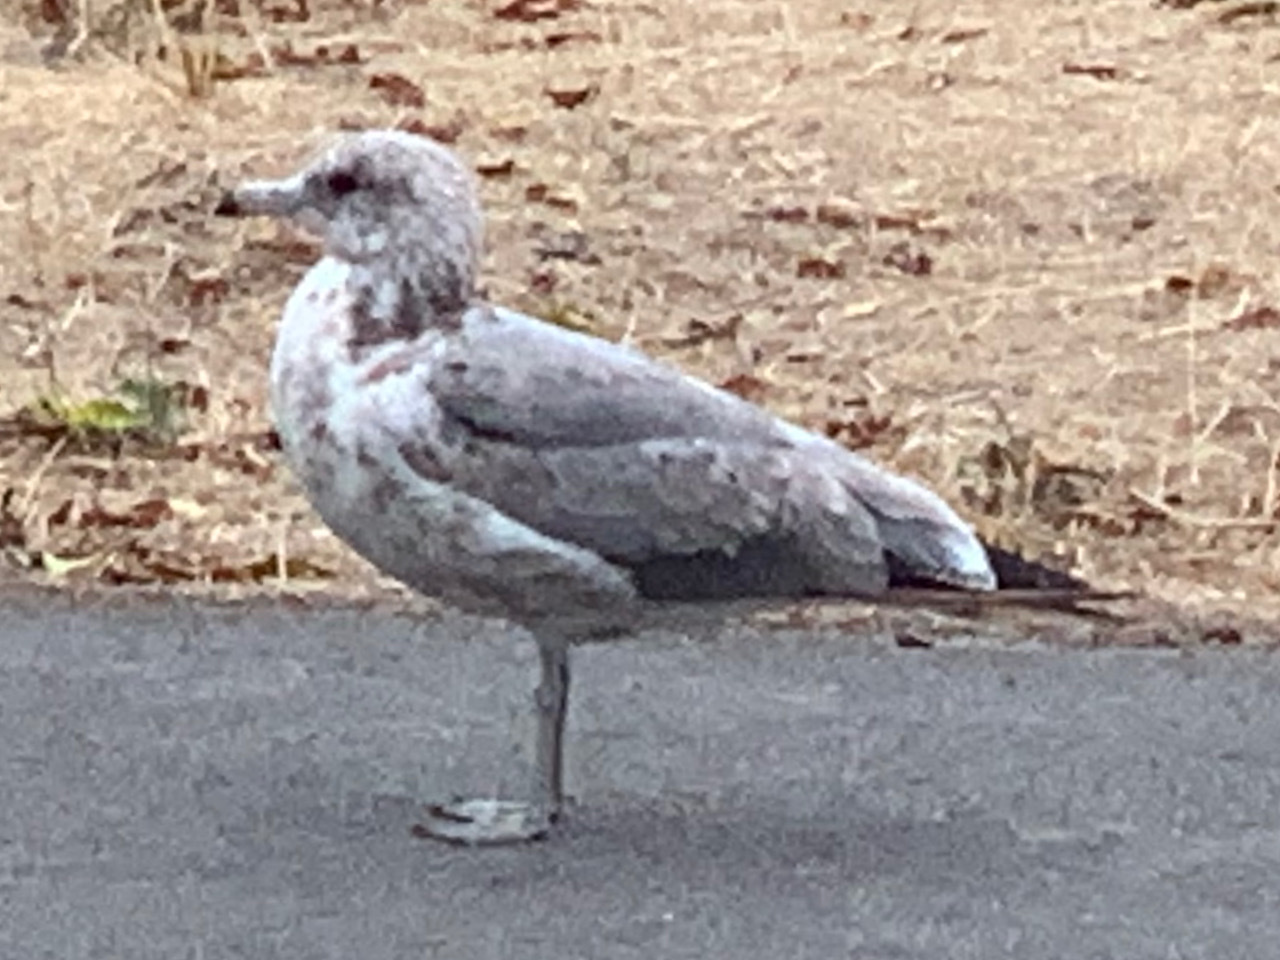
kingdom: Animalia
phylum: Chordata
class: Aves
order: Charadriiformes
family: Laridae
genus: Larus
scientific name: Larus californicus
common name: California gull
